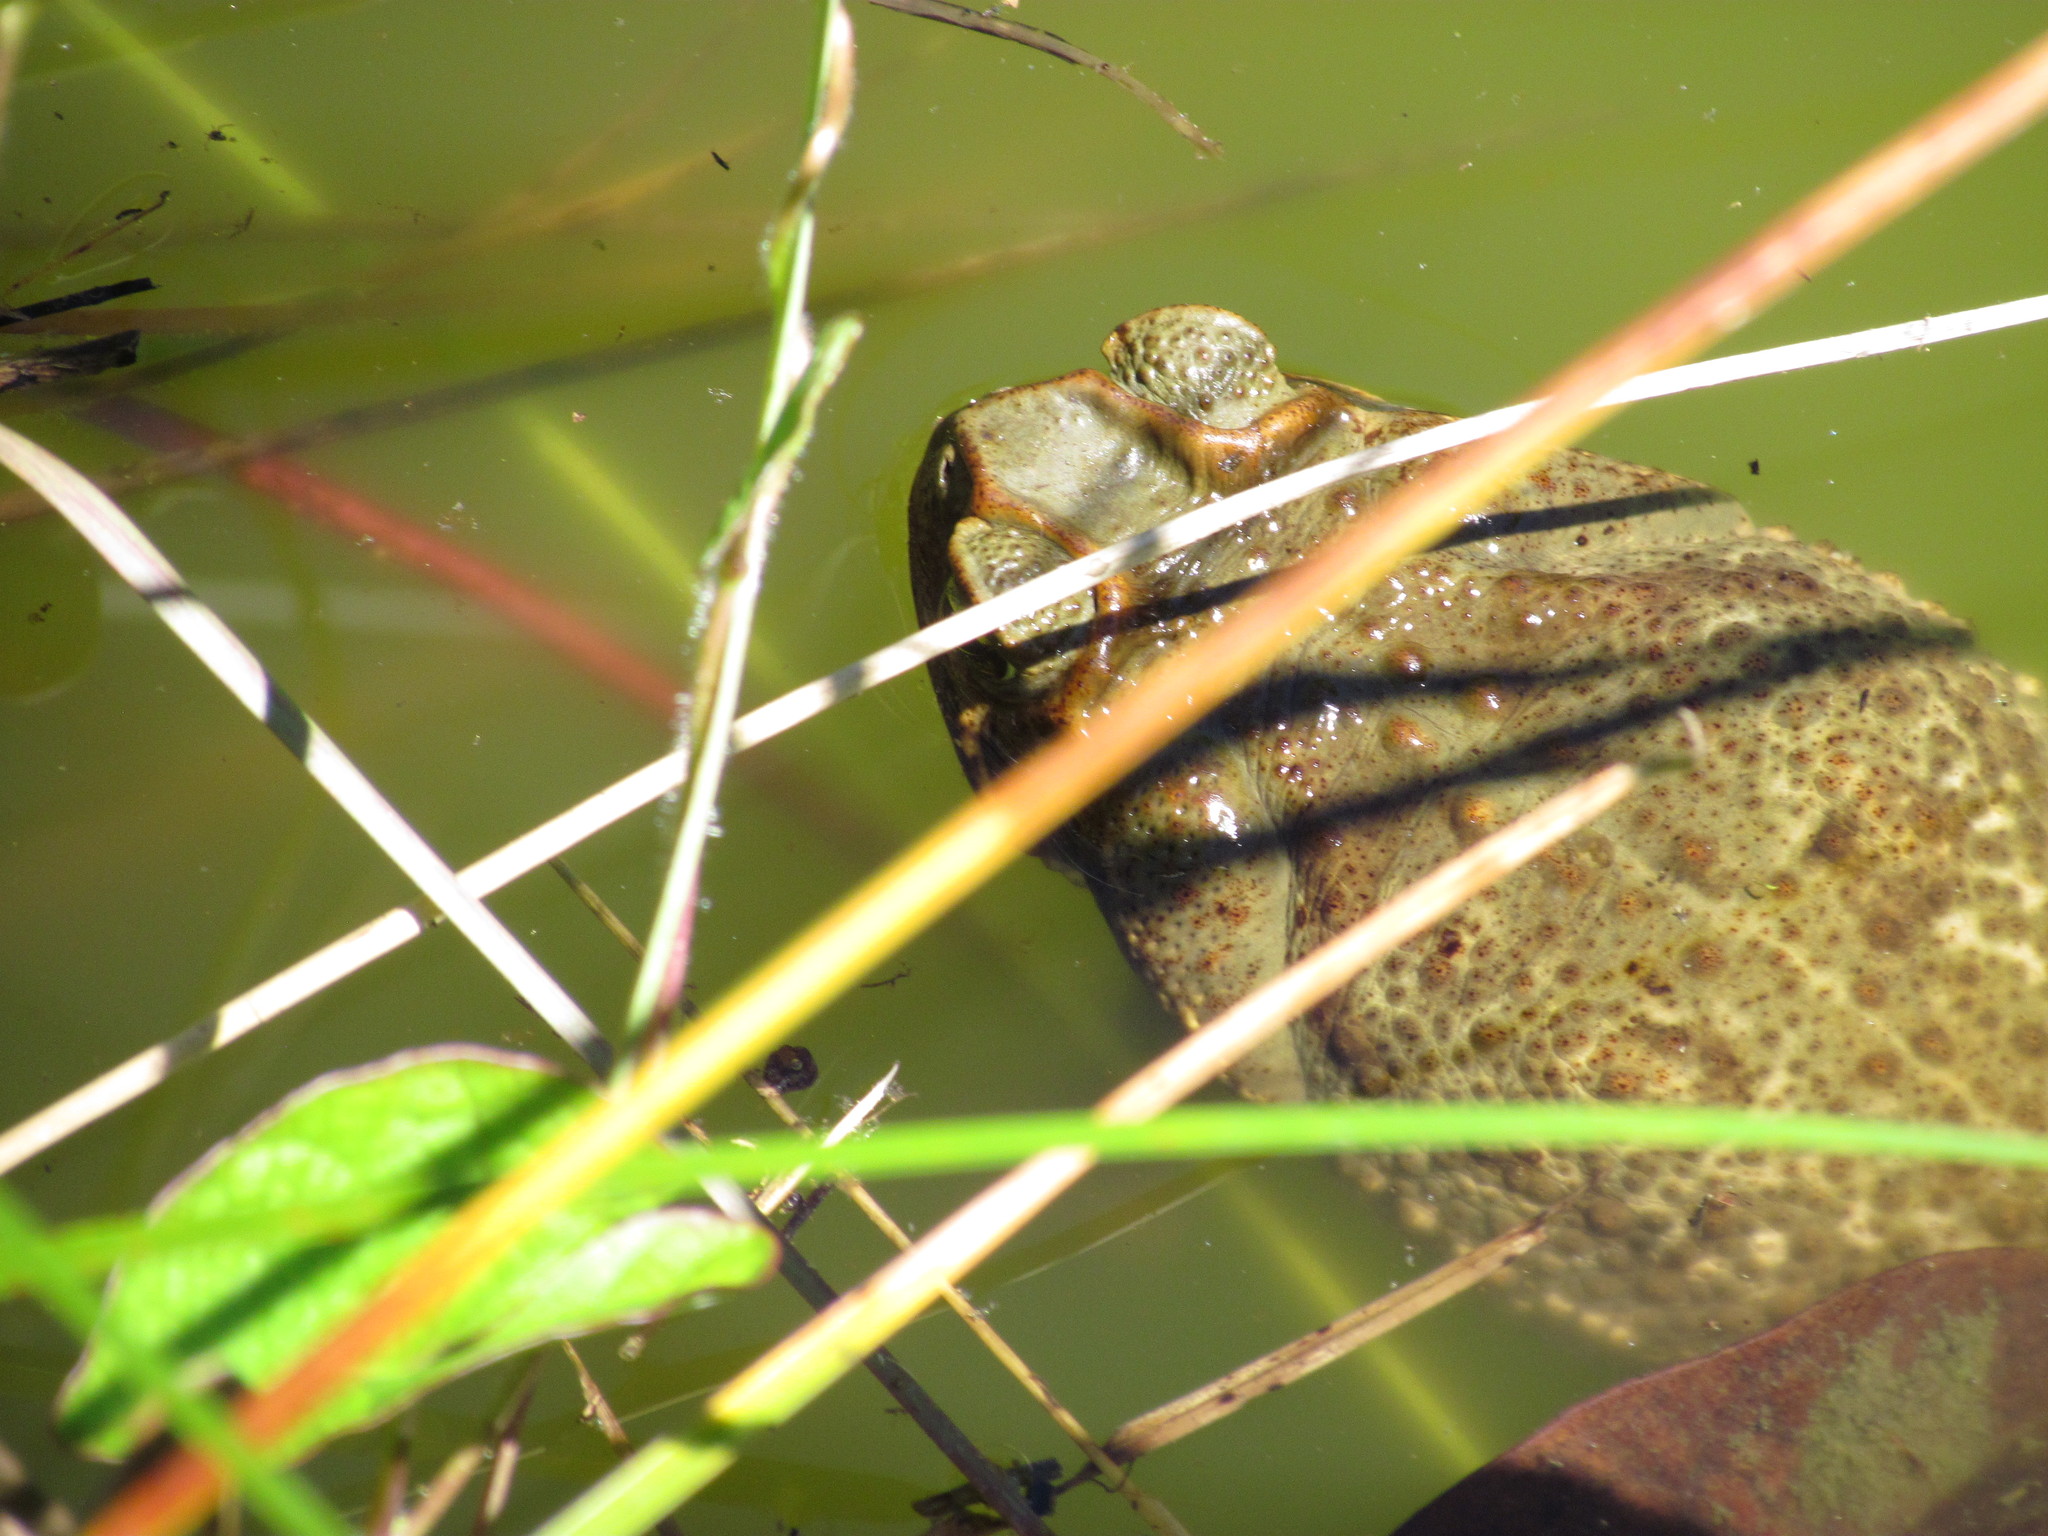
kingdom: Animalia
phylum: Chordata
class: Amphibia
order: Anura
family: Bufonidae
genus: Rhinella
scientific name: Rhinella diptycha
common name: Cope's toad
